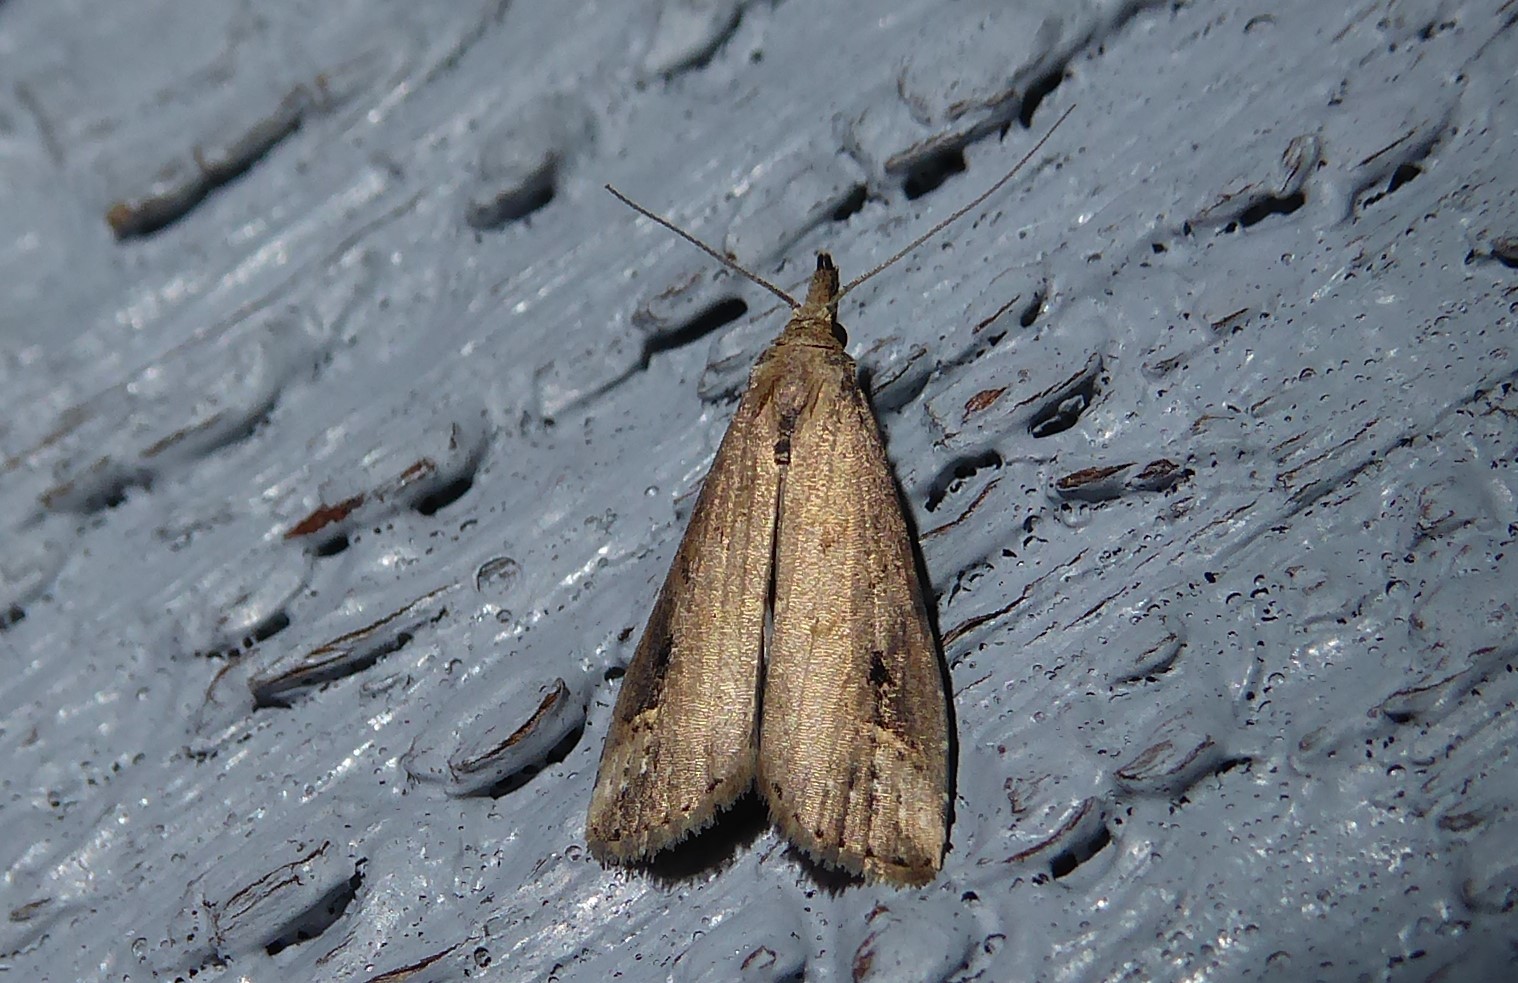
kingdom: Animalia
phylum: Arthropoda
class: Insecta
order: Lepidoptera
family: Erebidae
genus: Schrankia
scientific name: Schrankia costaestrigalis
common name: Pinion-streaked snout
